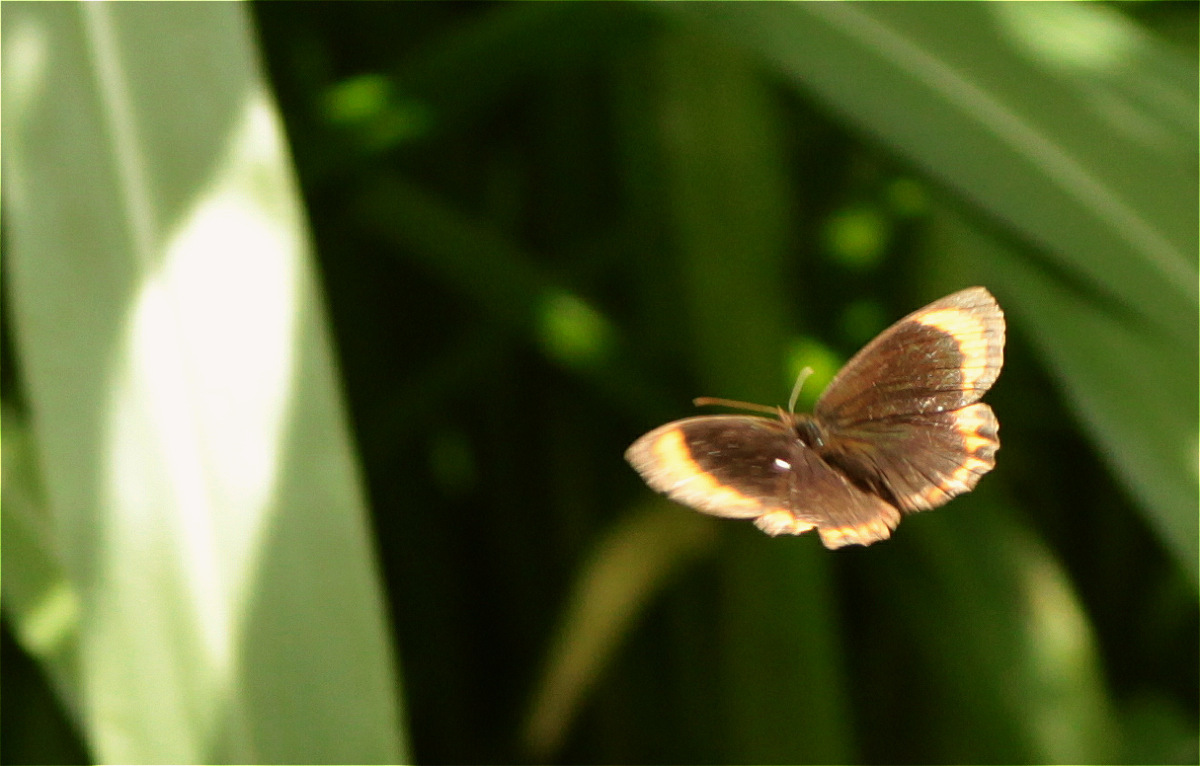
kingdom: Animalia
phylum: Arthropoda
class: Insecta
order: Lepidoptera
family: Nymphalidae
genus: Parapedaliodes
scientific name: Parapedaliodes parepa
